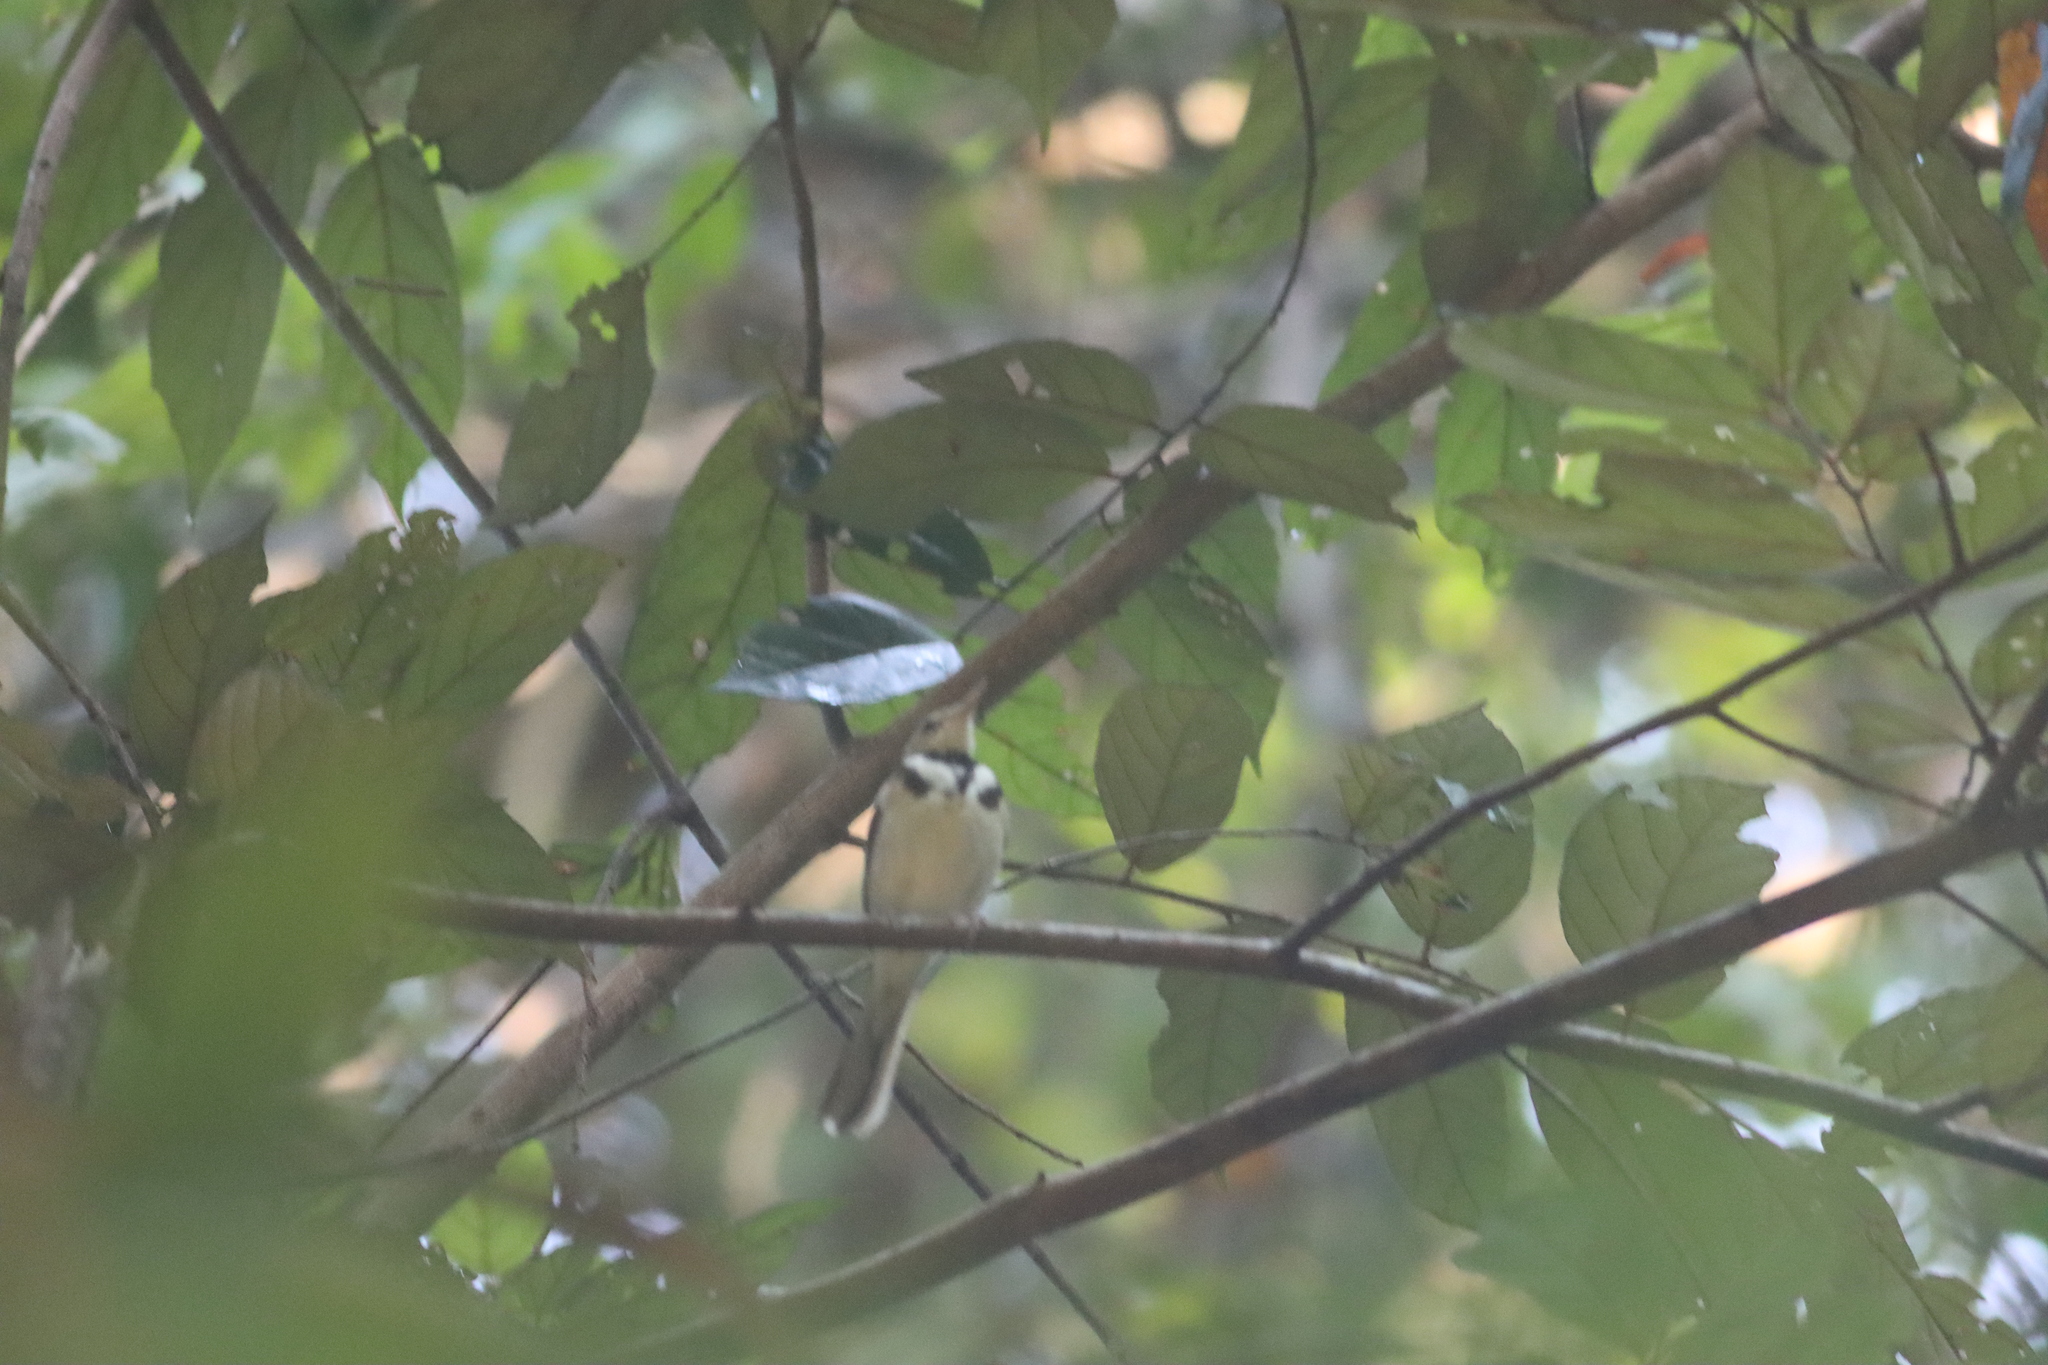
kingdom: Animalia
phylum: Chordata
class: Aves
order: Passeriformes
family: Motacillidae
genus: Dendronanthus
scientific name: Dendronanthus indicus
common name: Forest wagtail
